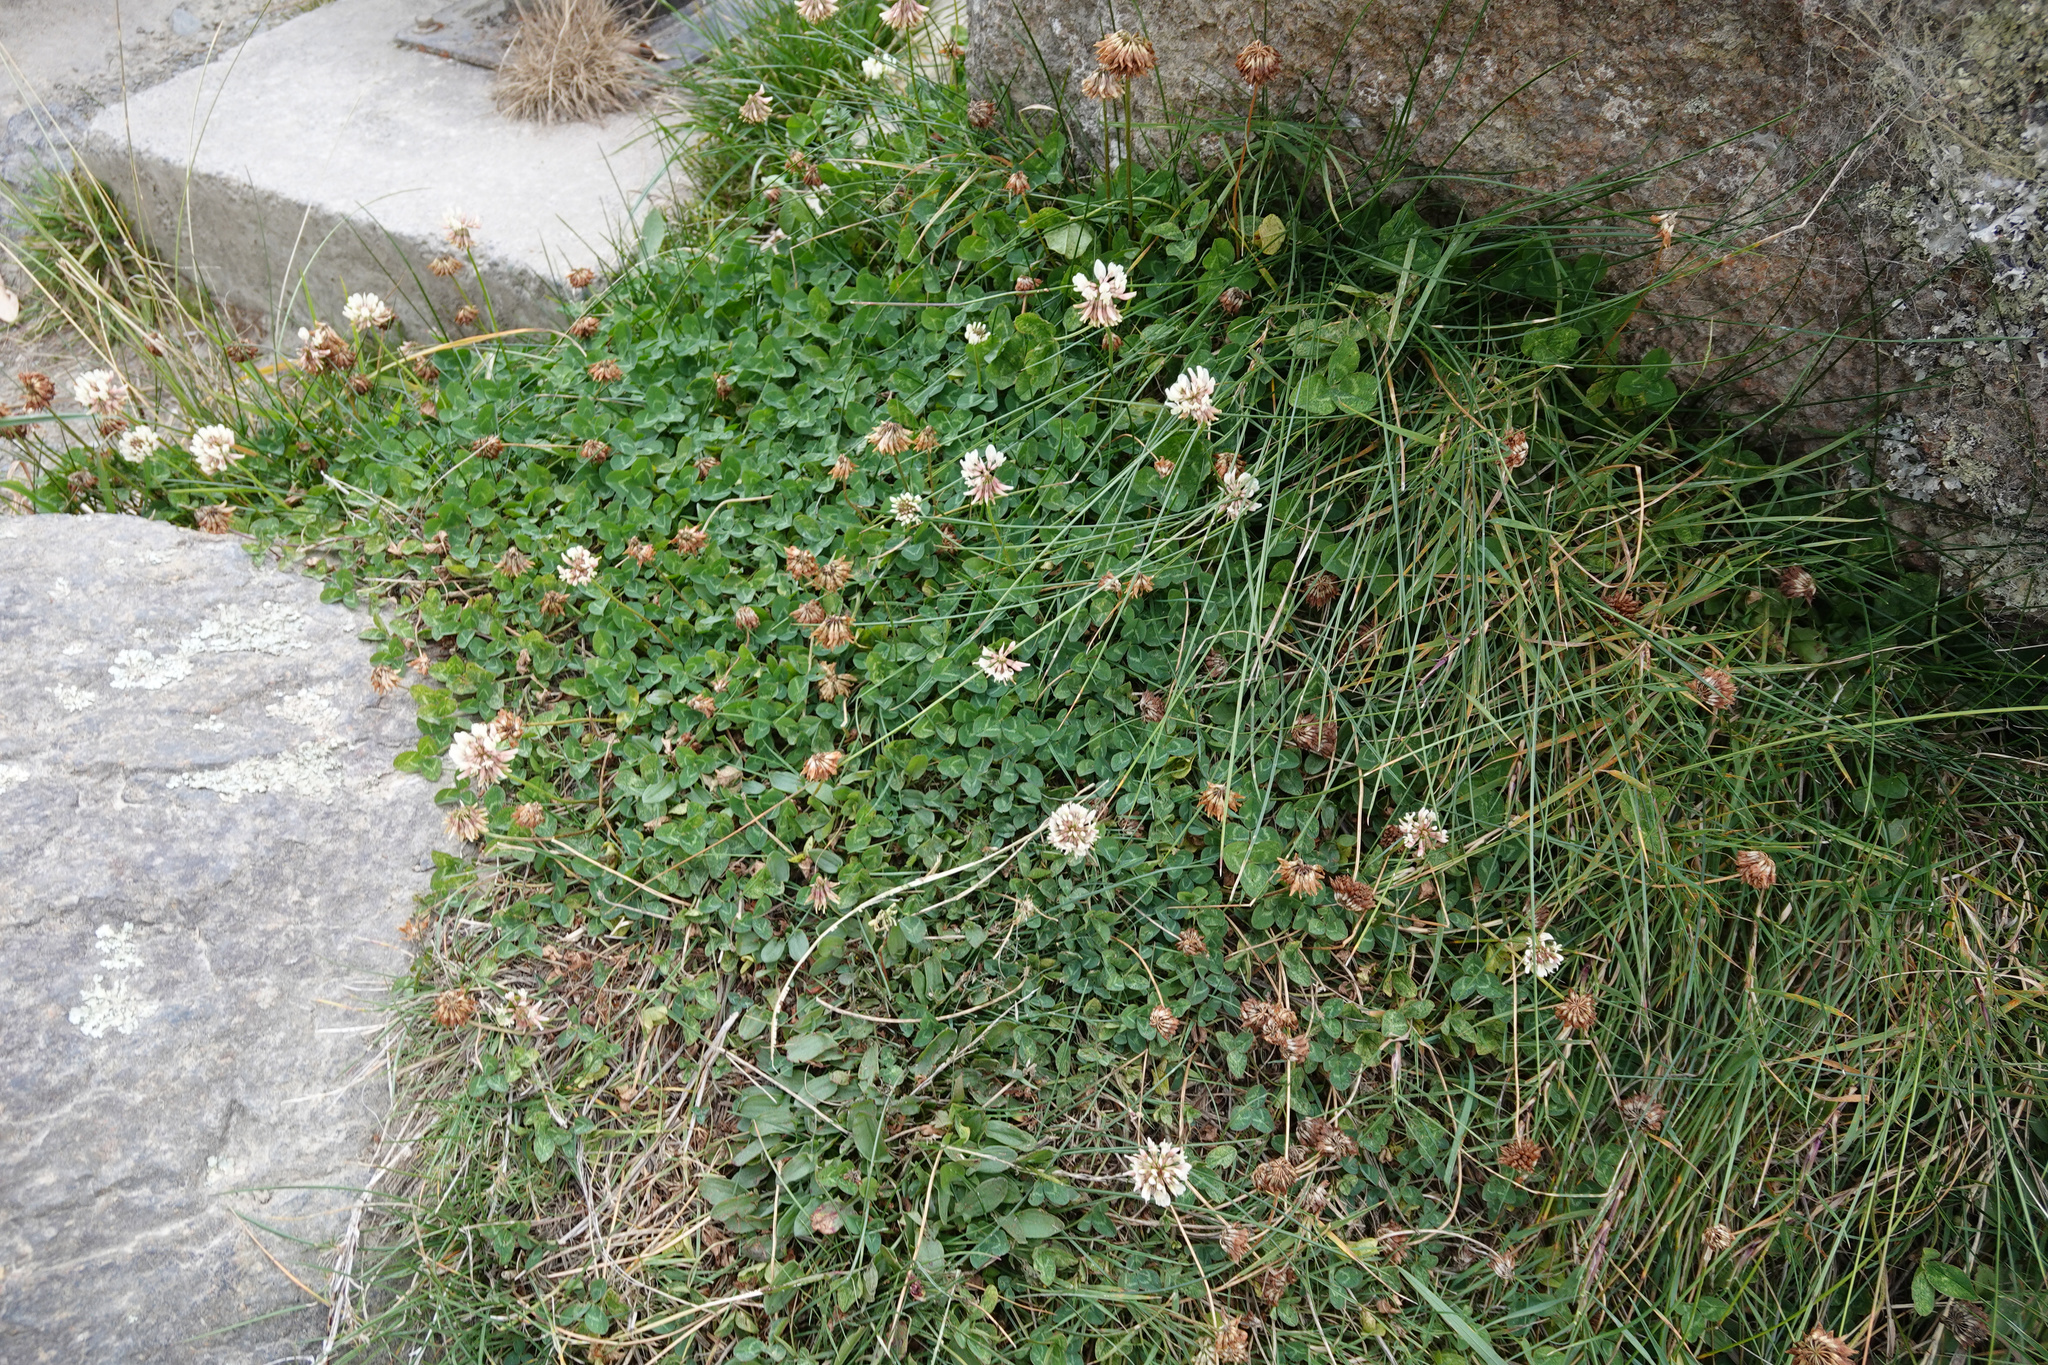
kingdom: Plantae
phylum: Tracheophyta
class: Magnoliopsida
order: Fabales
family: Fabaceae
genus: Trifolium
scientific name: Trifolium repens
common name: White clover
